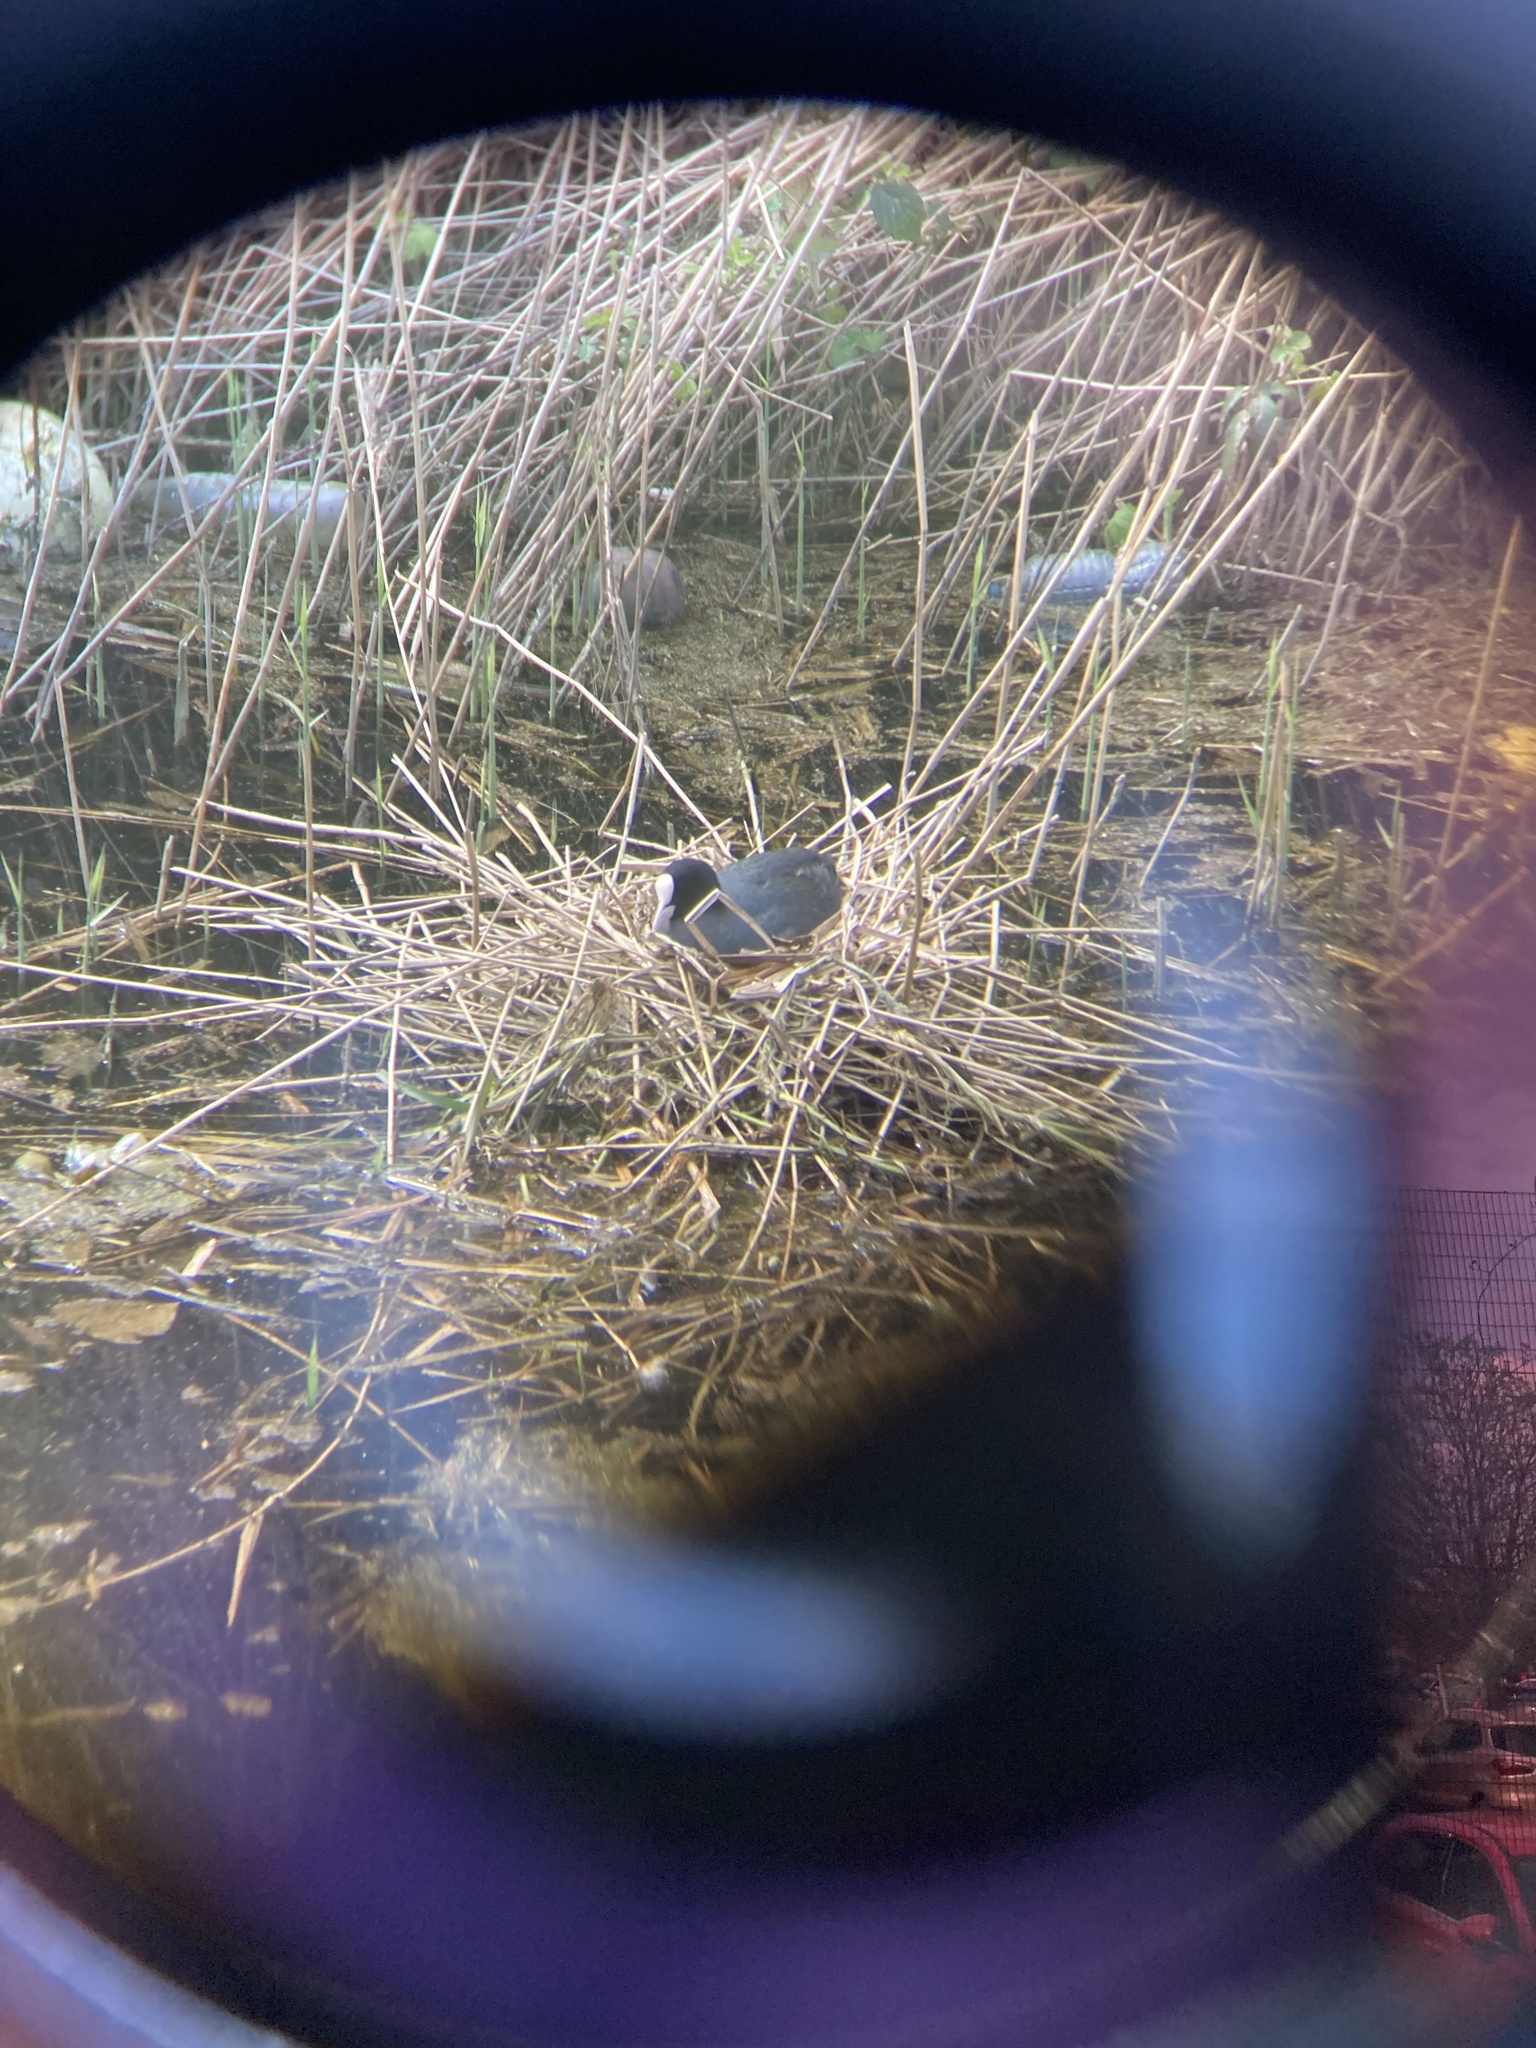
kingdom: Animalia
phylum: Chordata
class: Aves
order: Gruiformes
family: Rallidae
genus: Fulica
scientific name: Fulica atra
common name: Eurasian coot
